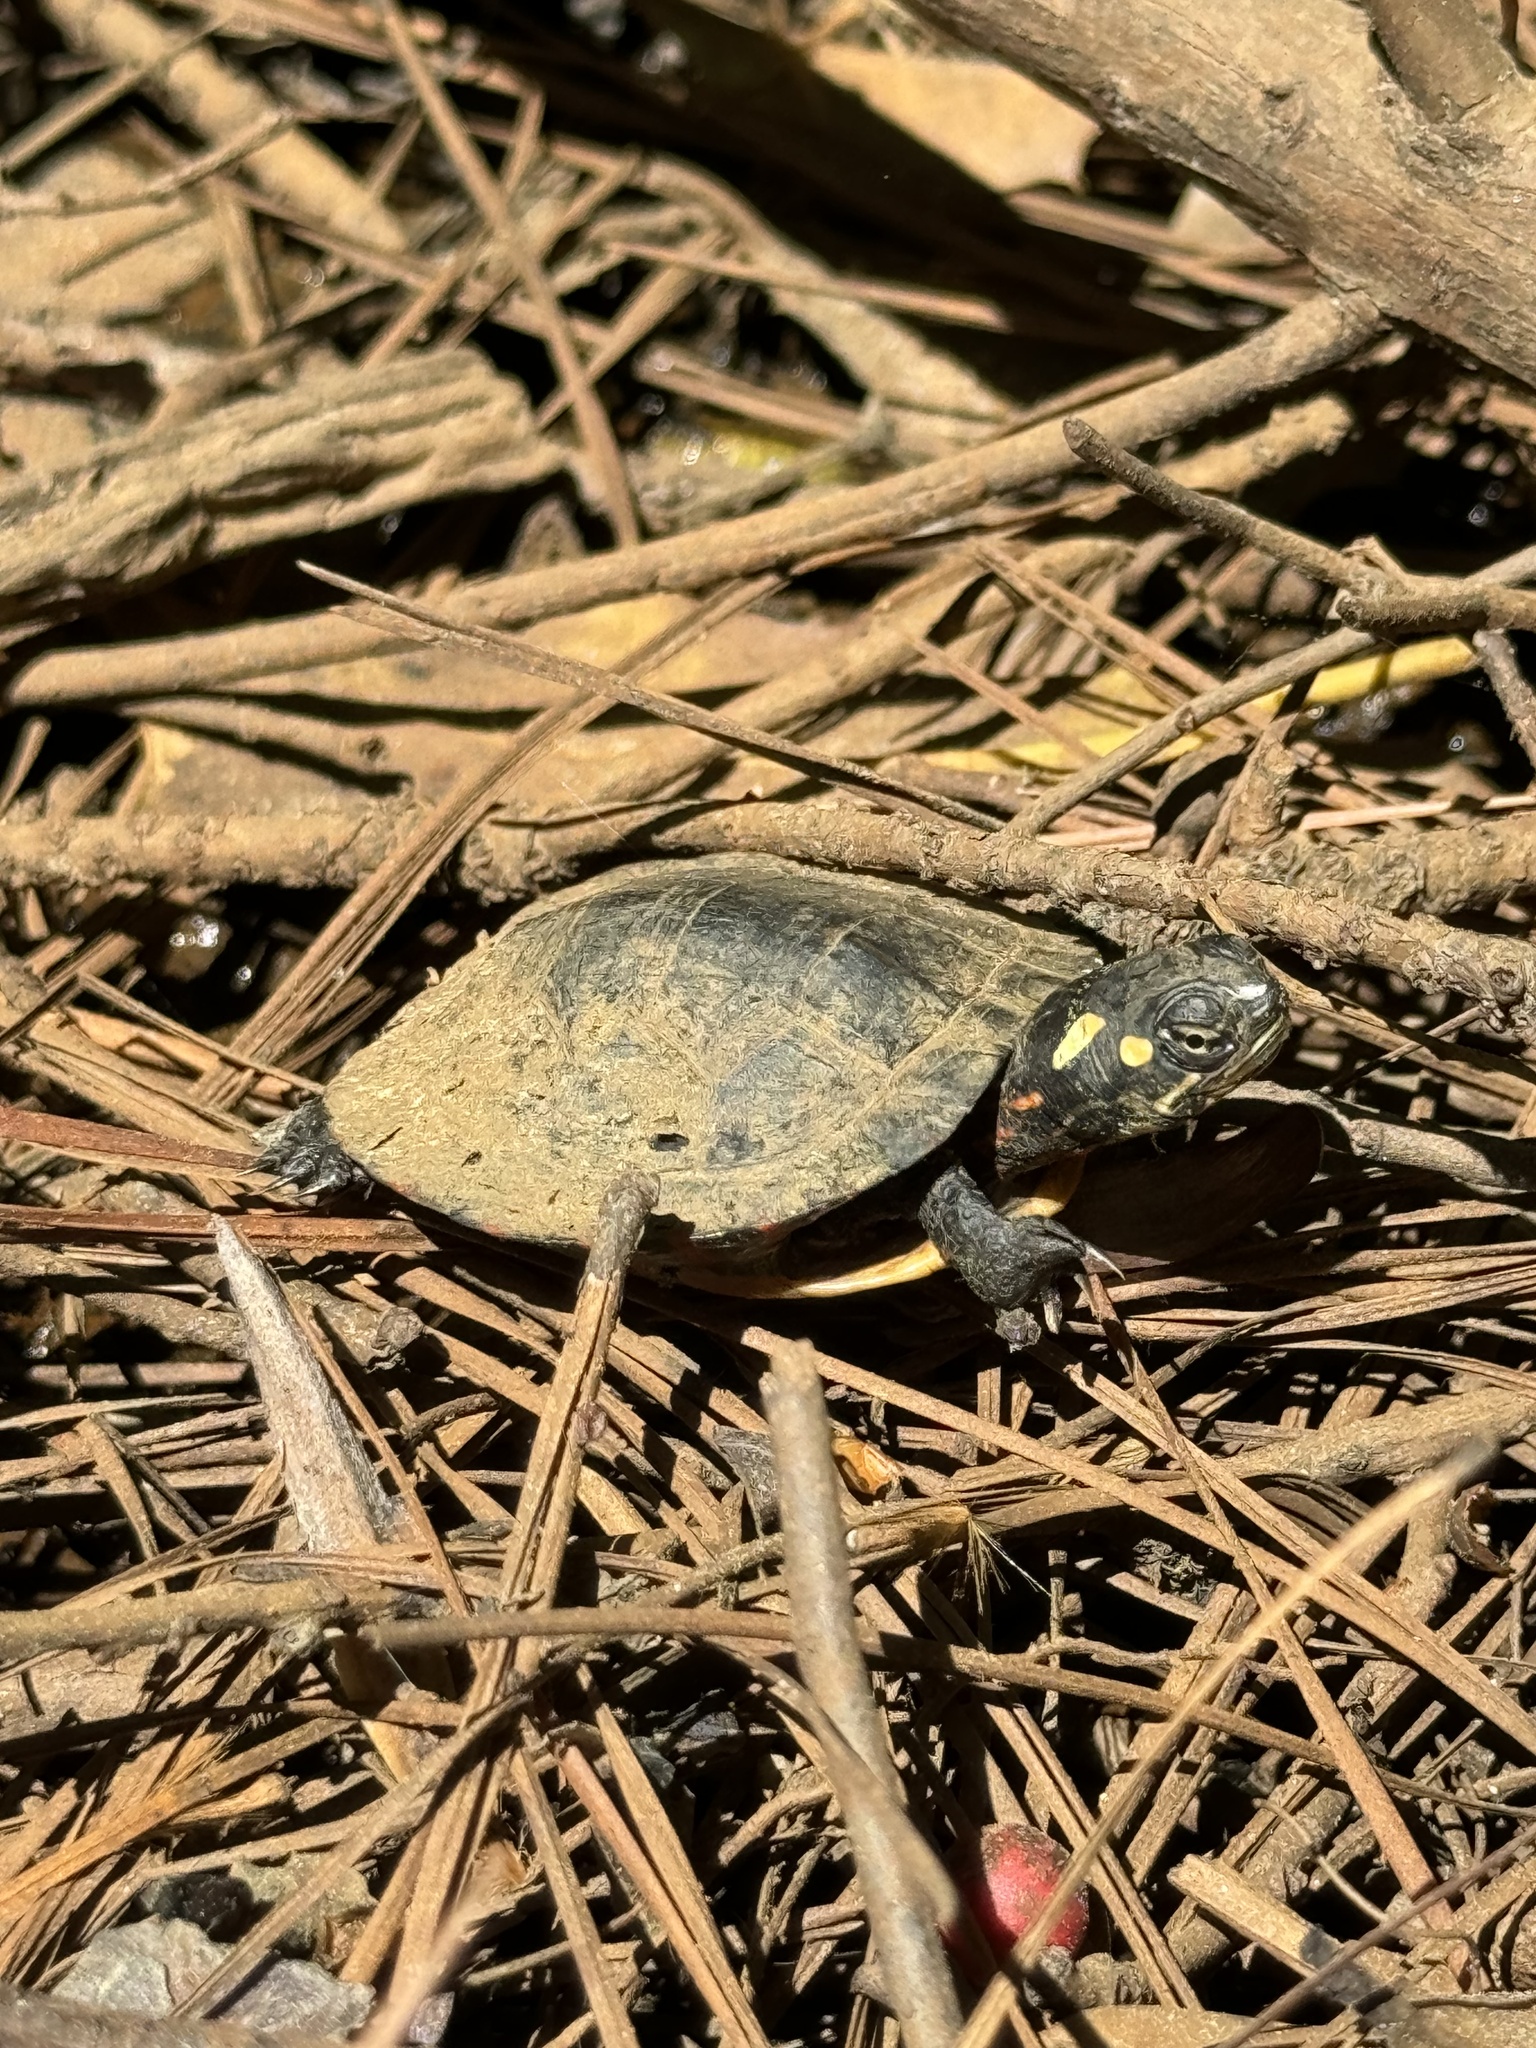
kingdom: Animalia
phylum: Chordata
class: Testudines
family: Emydidae
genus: Chrysemys
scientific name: Chrysemys picta
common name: Painted turtle
